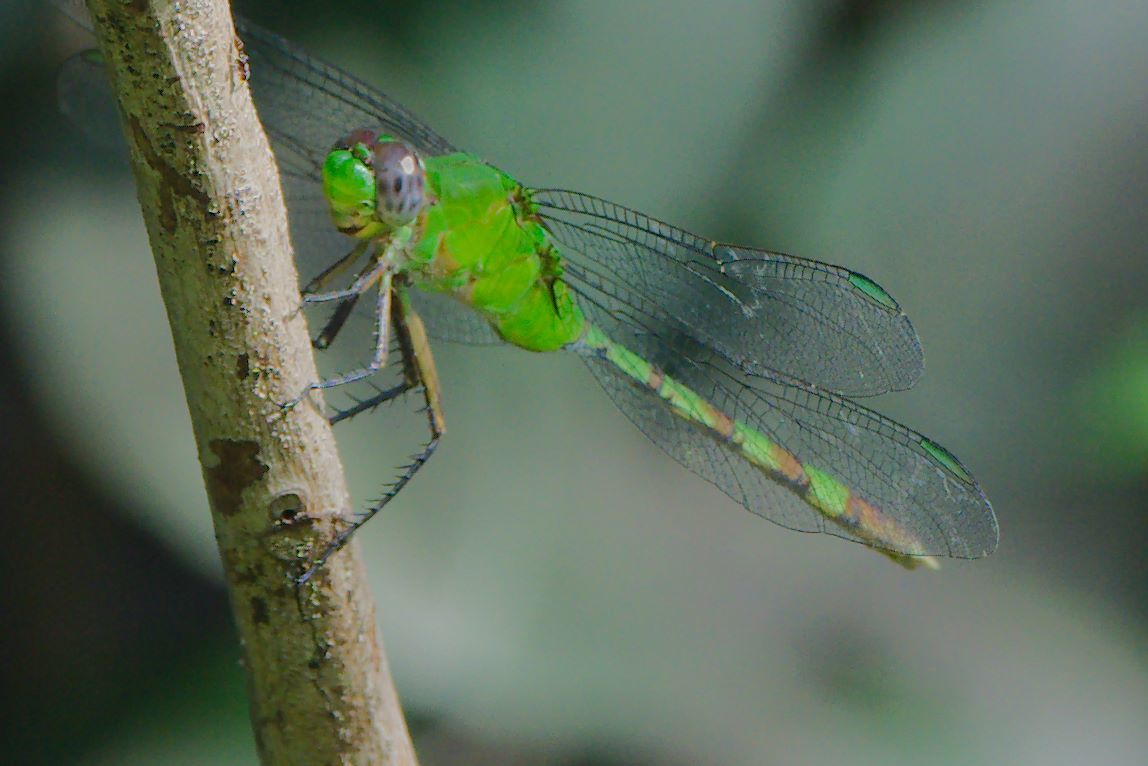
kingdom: Animalia
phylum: Arthropoda
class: Insecta
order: Odonata
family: Libellulidae
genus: Erythemis
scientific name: Erythemis vesiculosa
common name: Great pondhawk
